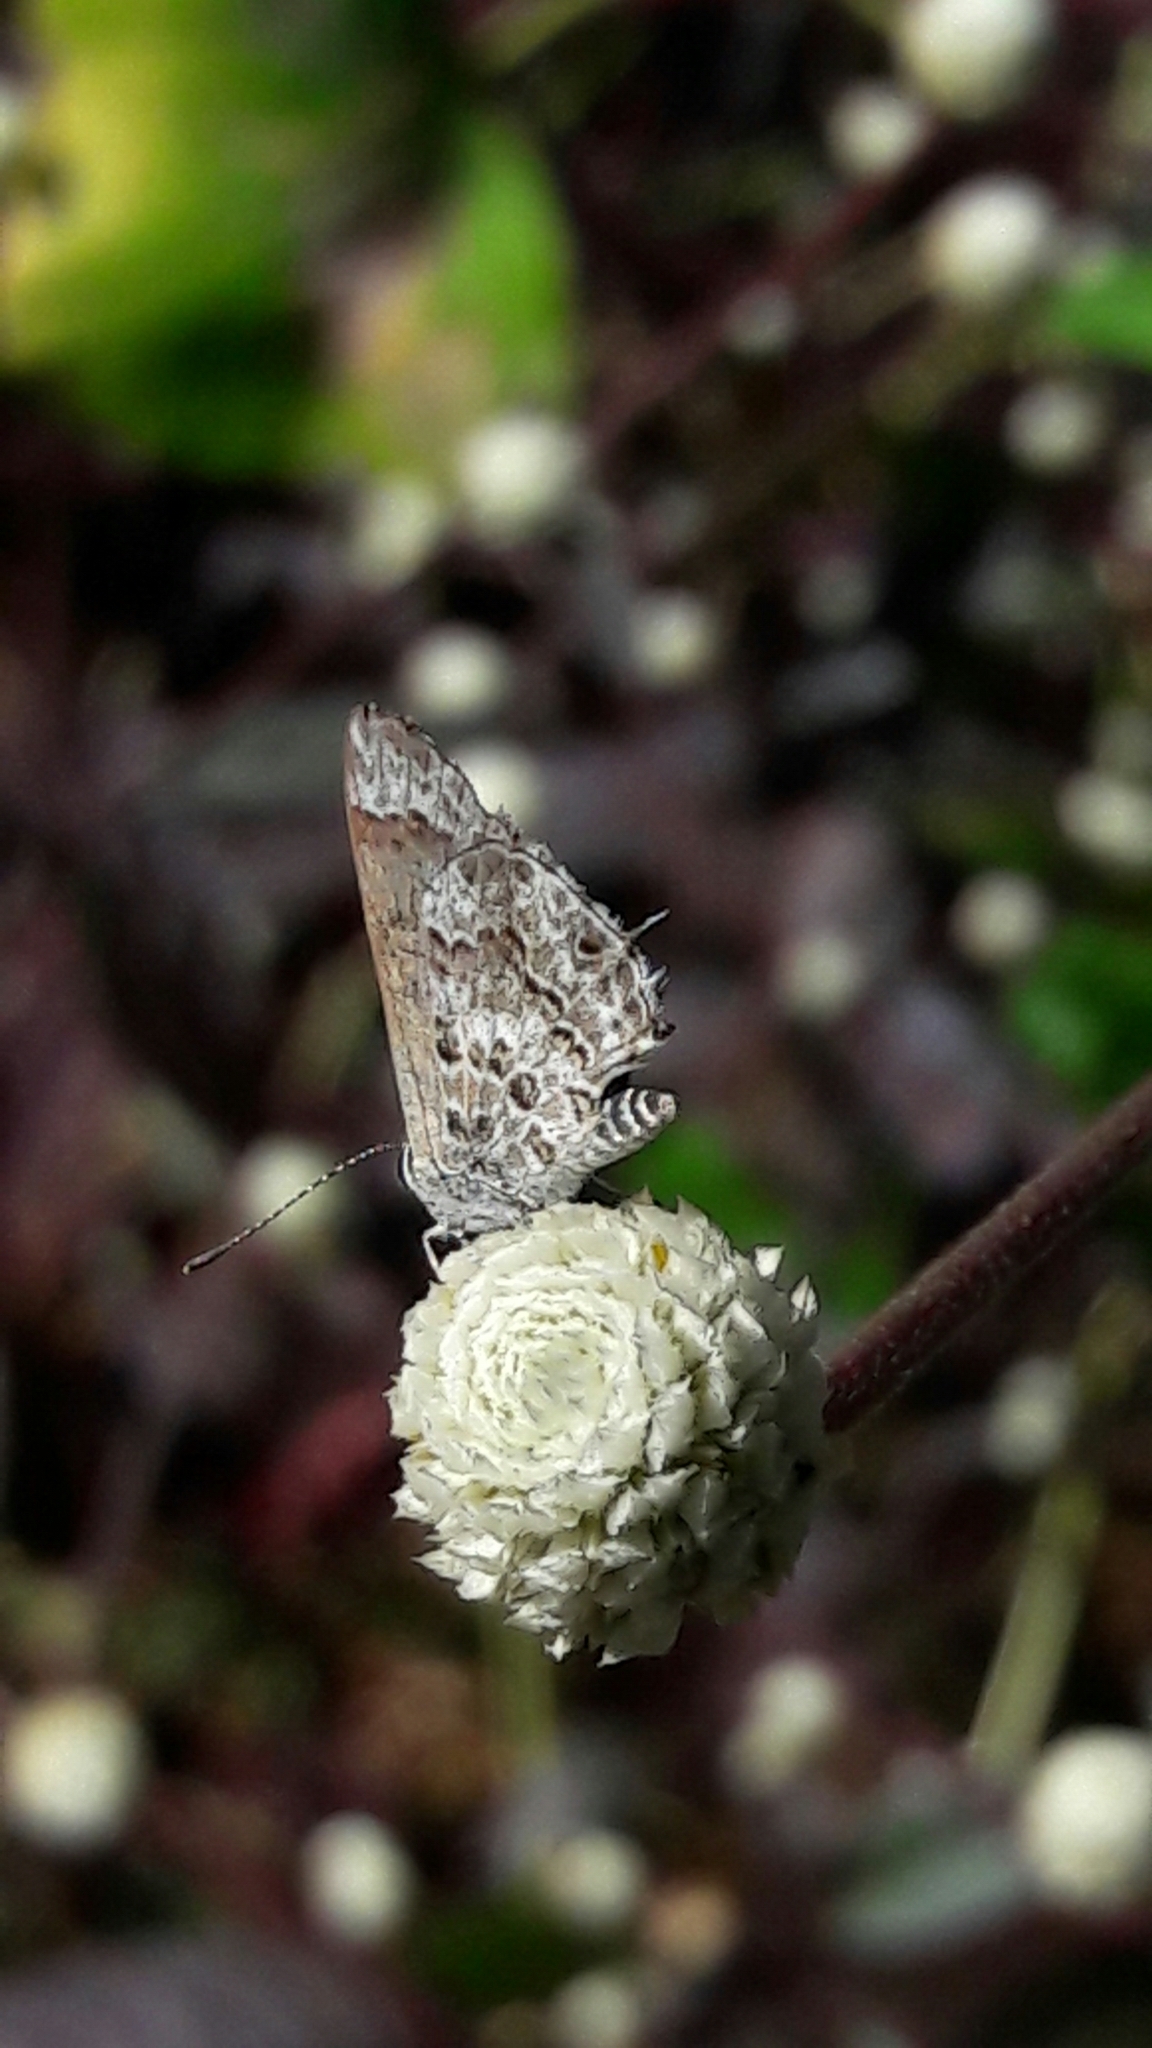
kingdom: Animalia
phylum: Arthropoda
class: Insecta
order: Lepidoptera
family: Lycaenidae
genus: Strymon
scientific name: Strymon astiocha
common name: Gray-spotted scrub-hairstreak
